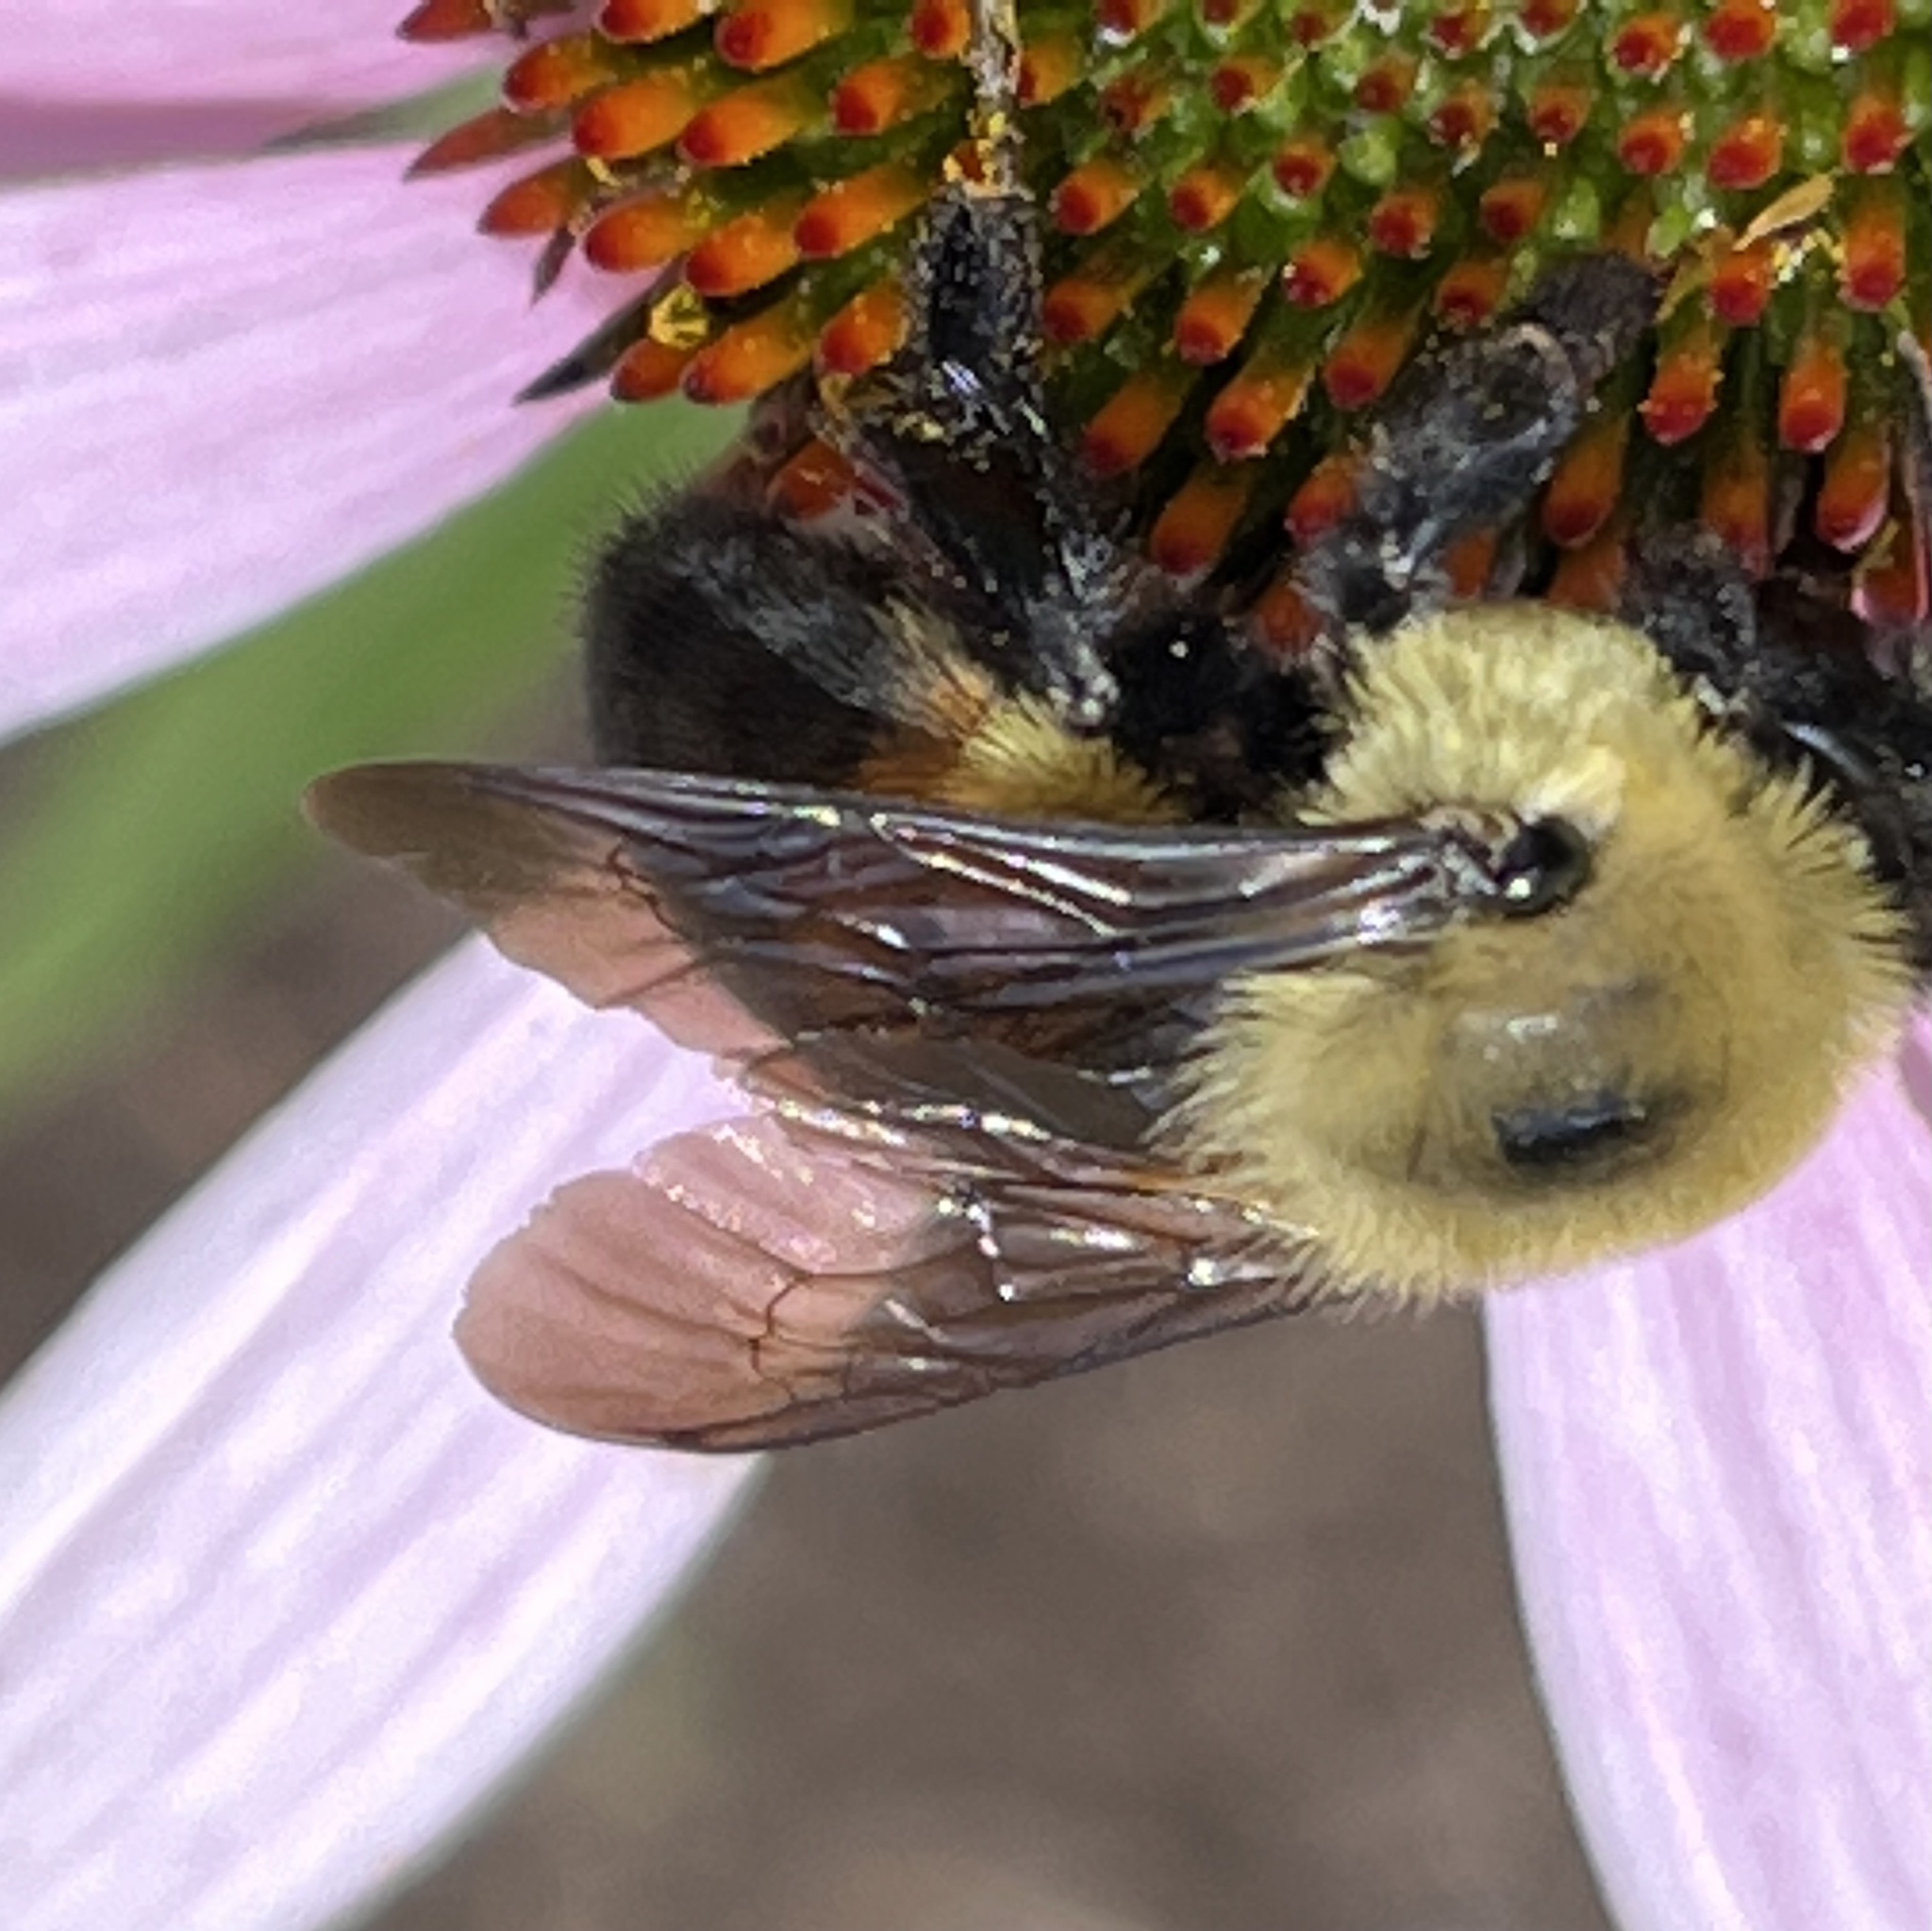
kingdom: Animalia
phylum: Arthropoda
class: Insecta
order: Hymenoptera
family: Apidae
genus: Bombus
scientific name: Bombus griseocollis
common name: Brown-belted bumble bee
